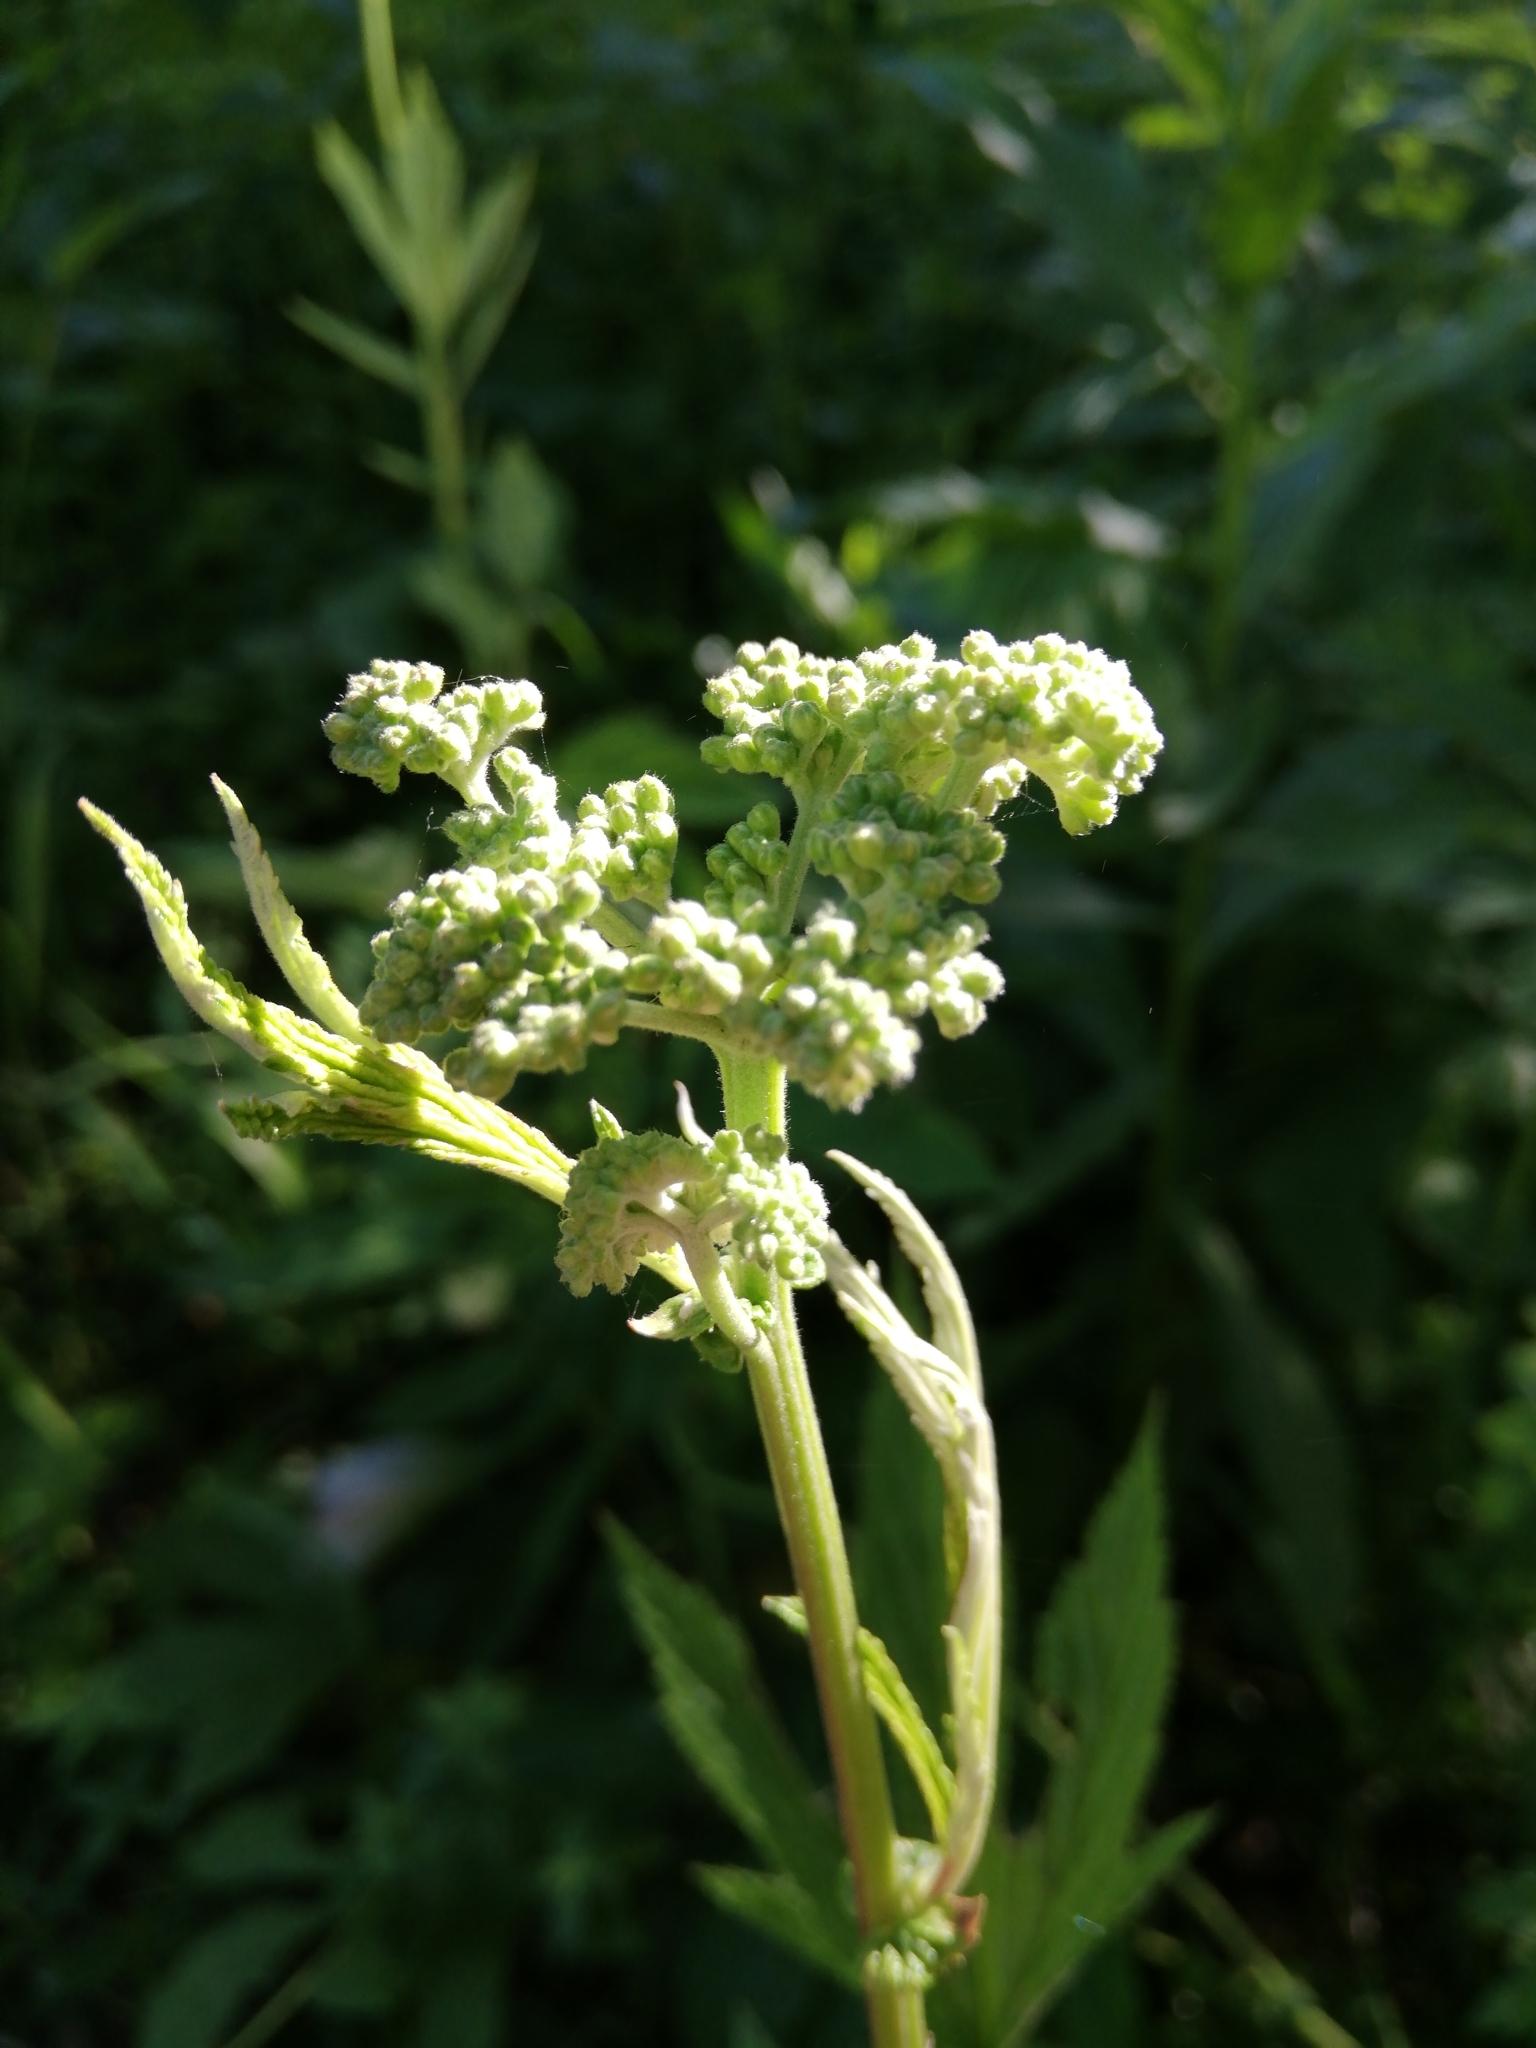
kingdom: Plantae
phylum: Tracheophyta
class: Magnoliopsida
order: Rosales
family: Rosaceae
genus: Filipendula
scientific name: Filipendula ulmaria
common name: Meadowsweet
